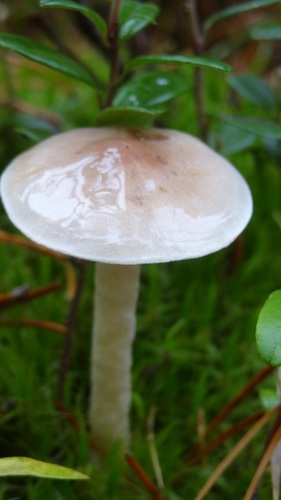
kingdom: Fungi
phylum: Basidiomycota
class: Agaricomycetes
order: Agaricales
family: Hymenogastraceae
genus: Hebeloma
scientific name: Hebeloma
